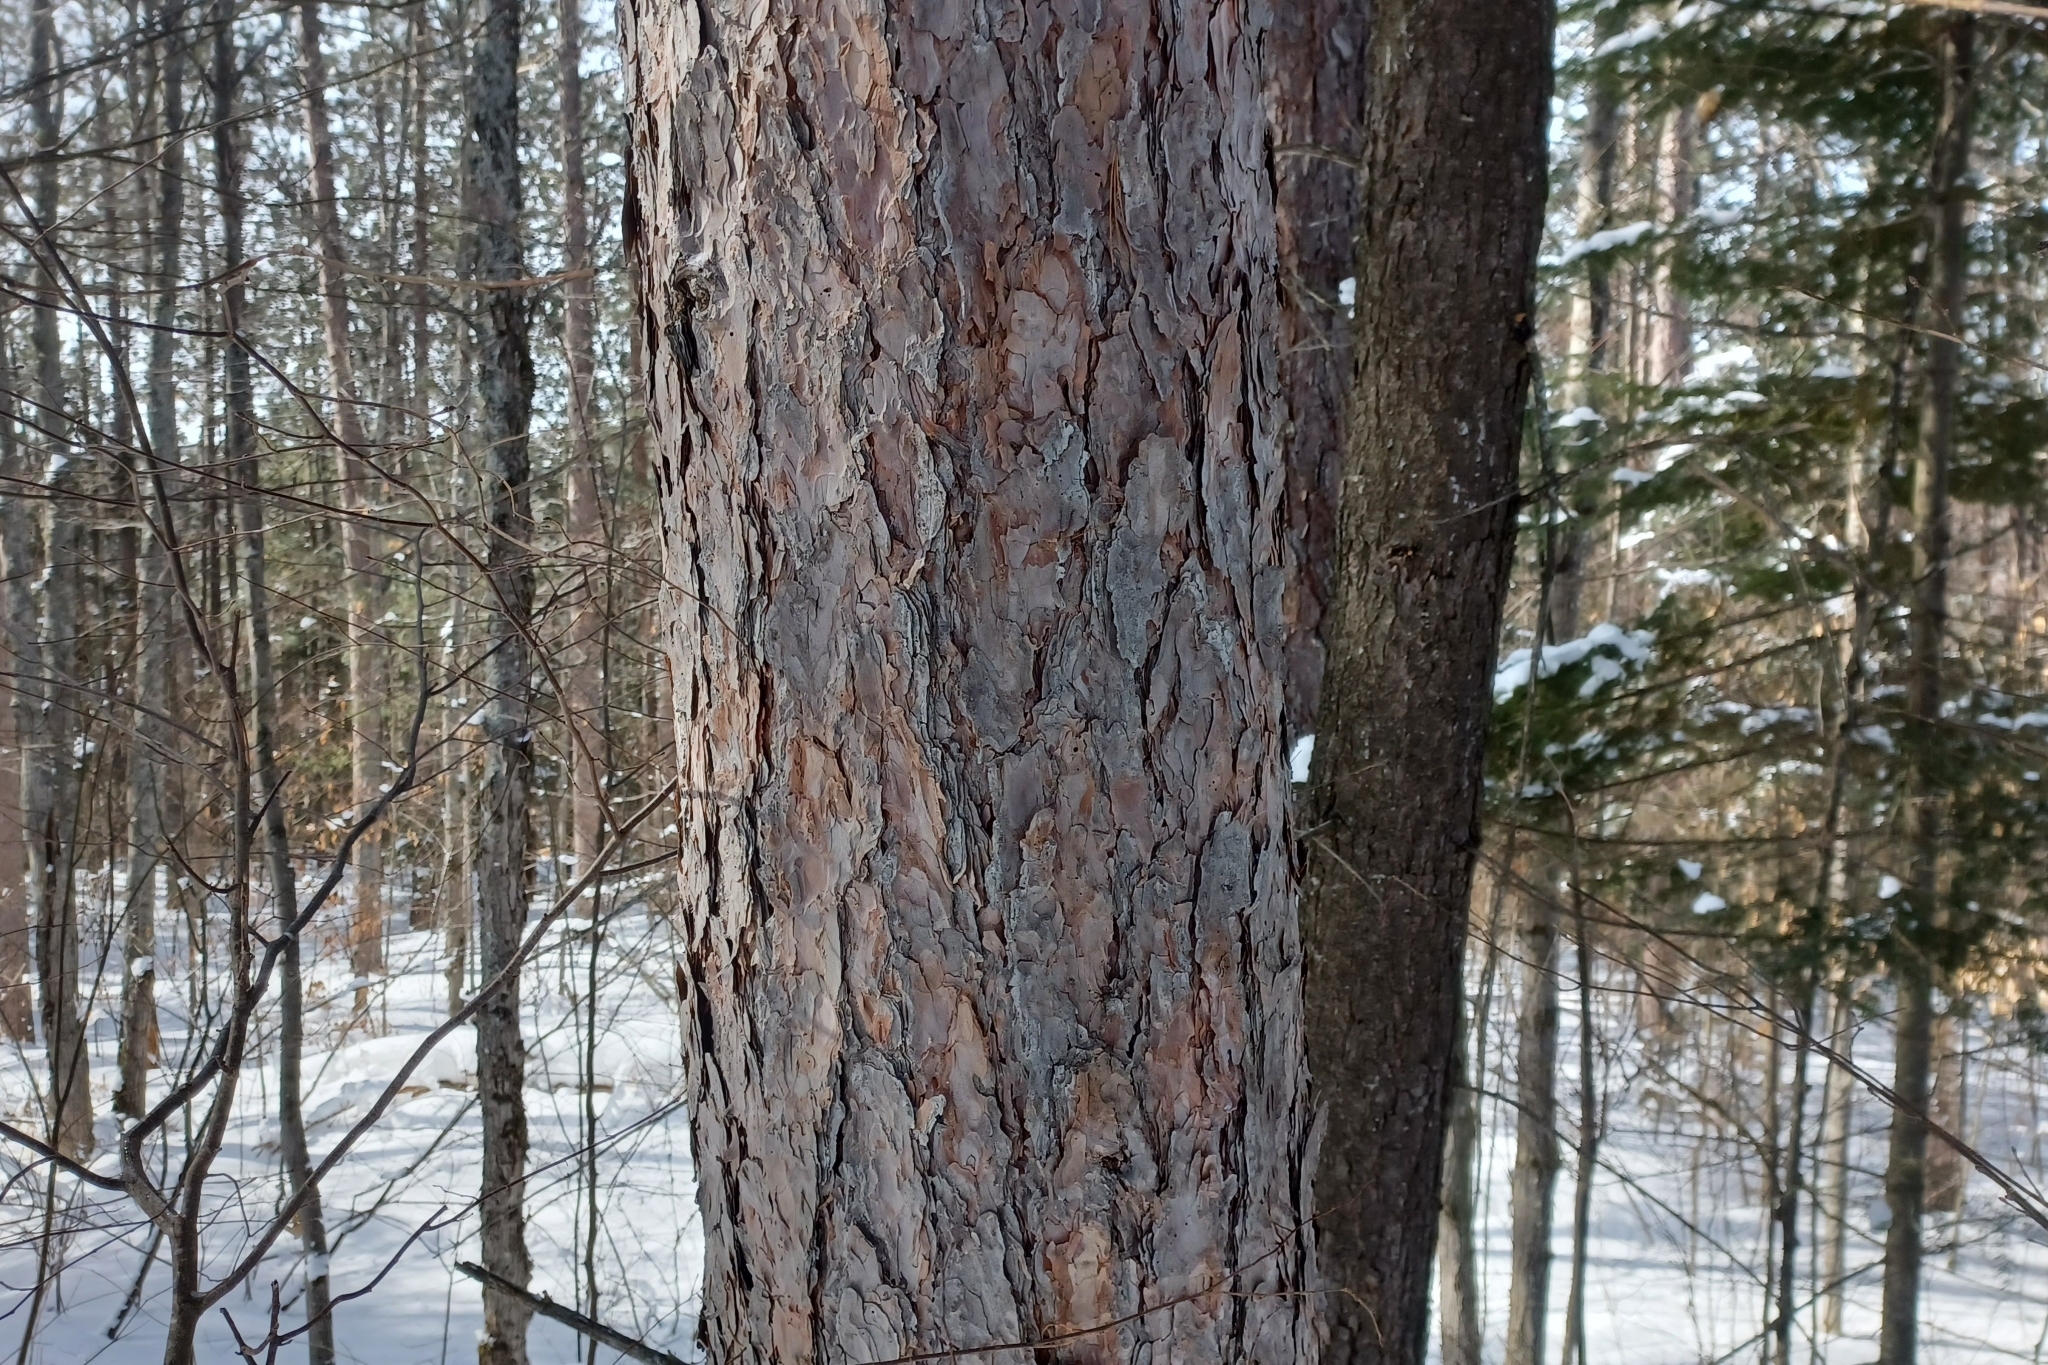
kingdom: Plantae
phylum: Tracheophyta
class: Pinopsida
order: Pinales
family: Pinaceae
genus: Pinus
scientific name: Pinus resinosa
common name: Norway pine
